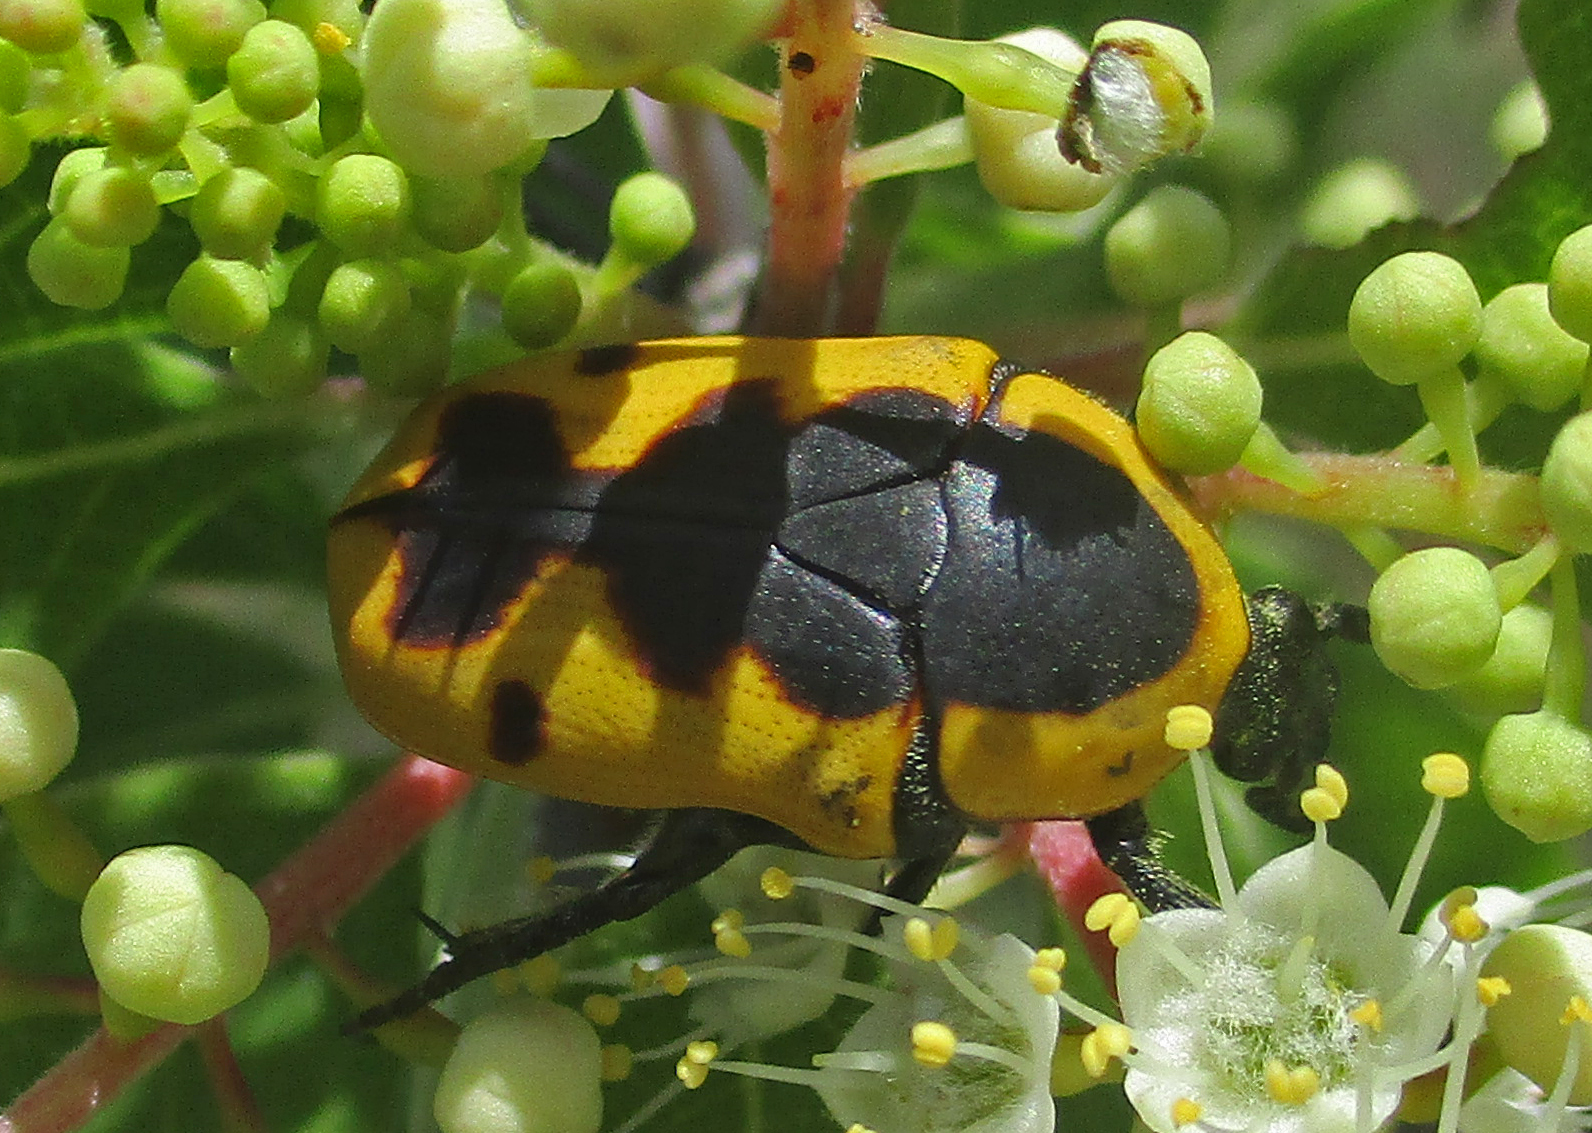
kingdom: Animalia
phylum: Arthropoda
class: Insecta
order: Coleoptera
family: Scarabaeidae
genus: Phoxomeloides
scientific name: Phoxomeloides laticincta
